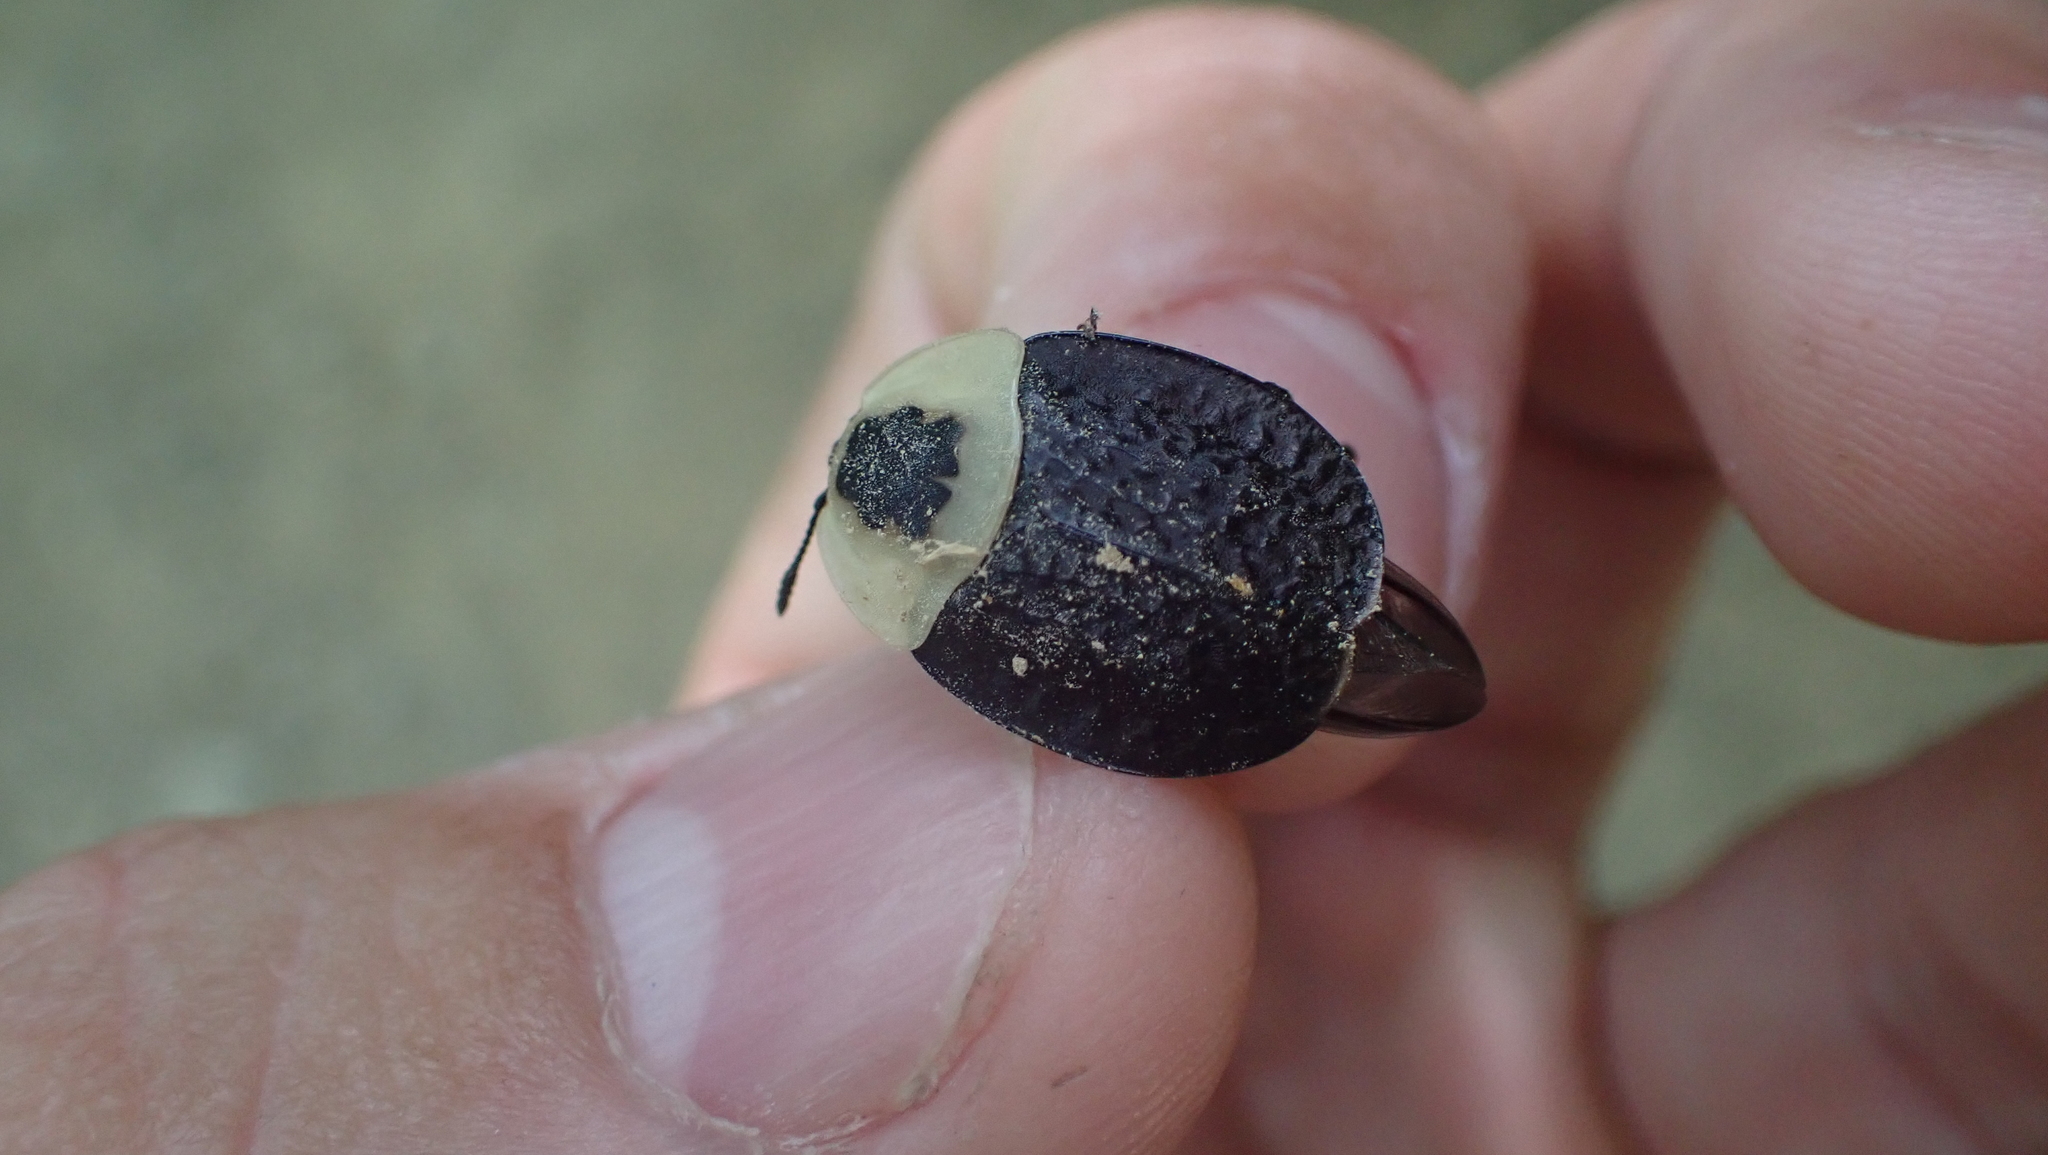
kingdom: Animalia
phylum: Arthropoda
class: Insecta
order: Coleoptera
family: Staphylinidae
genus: Necrophila
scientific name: Necrophila americana
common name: American carrion beetle
